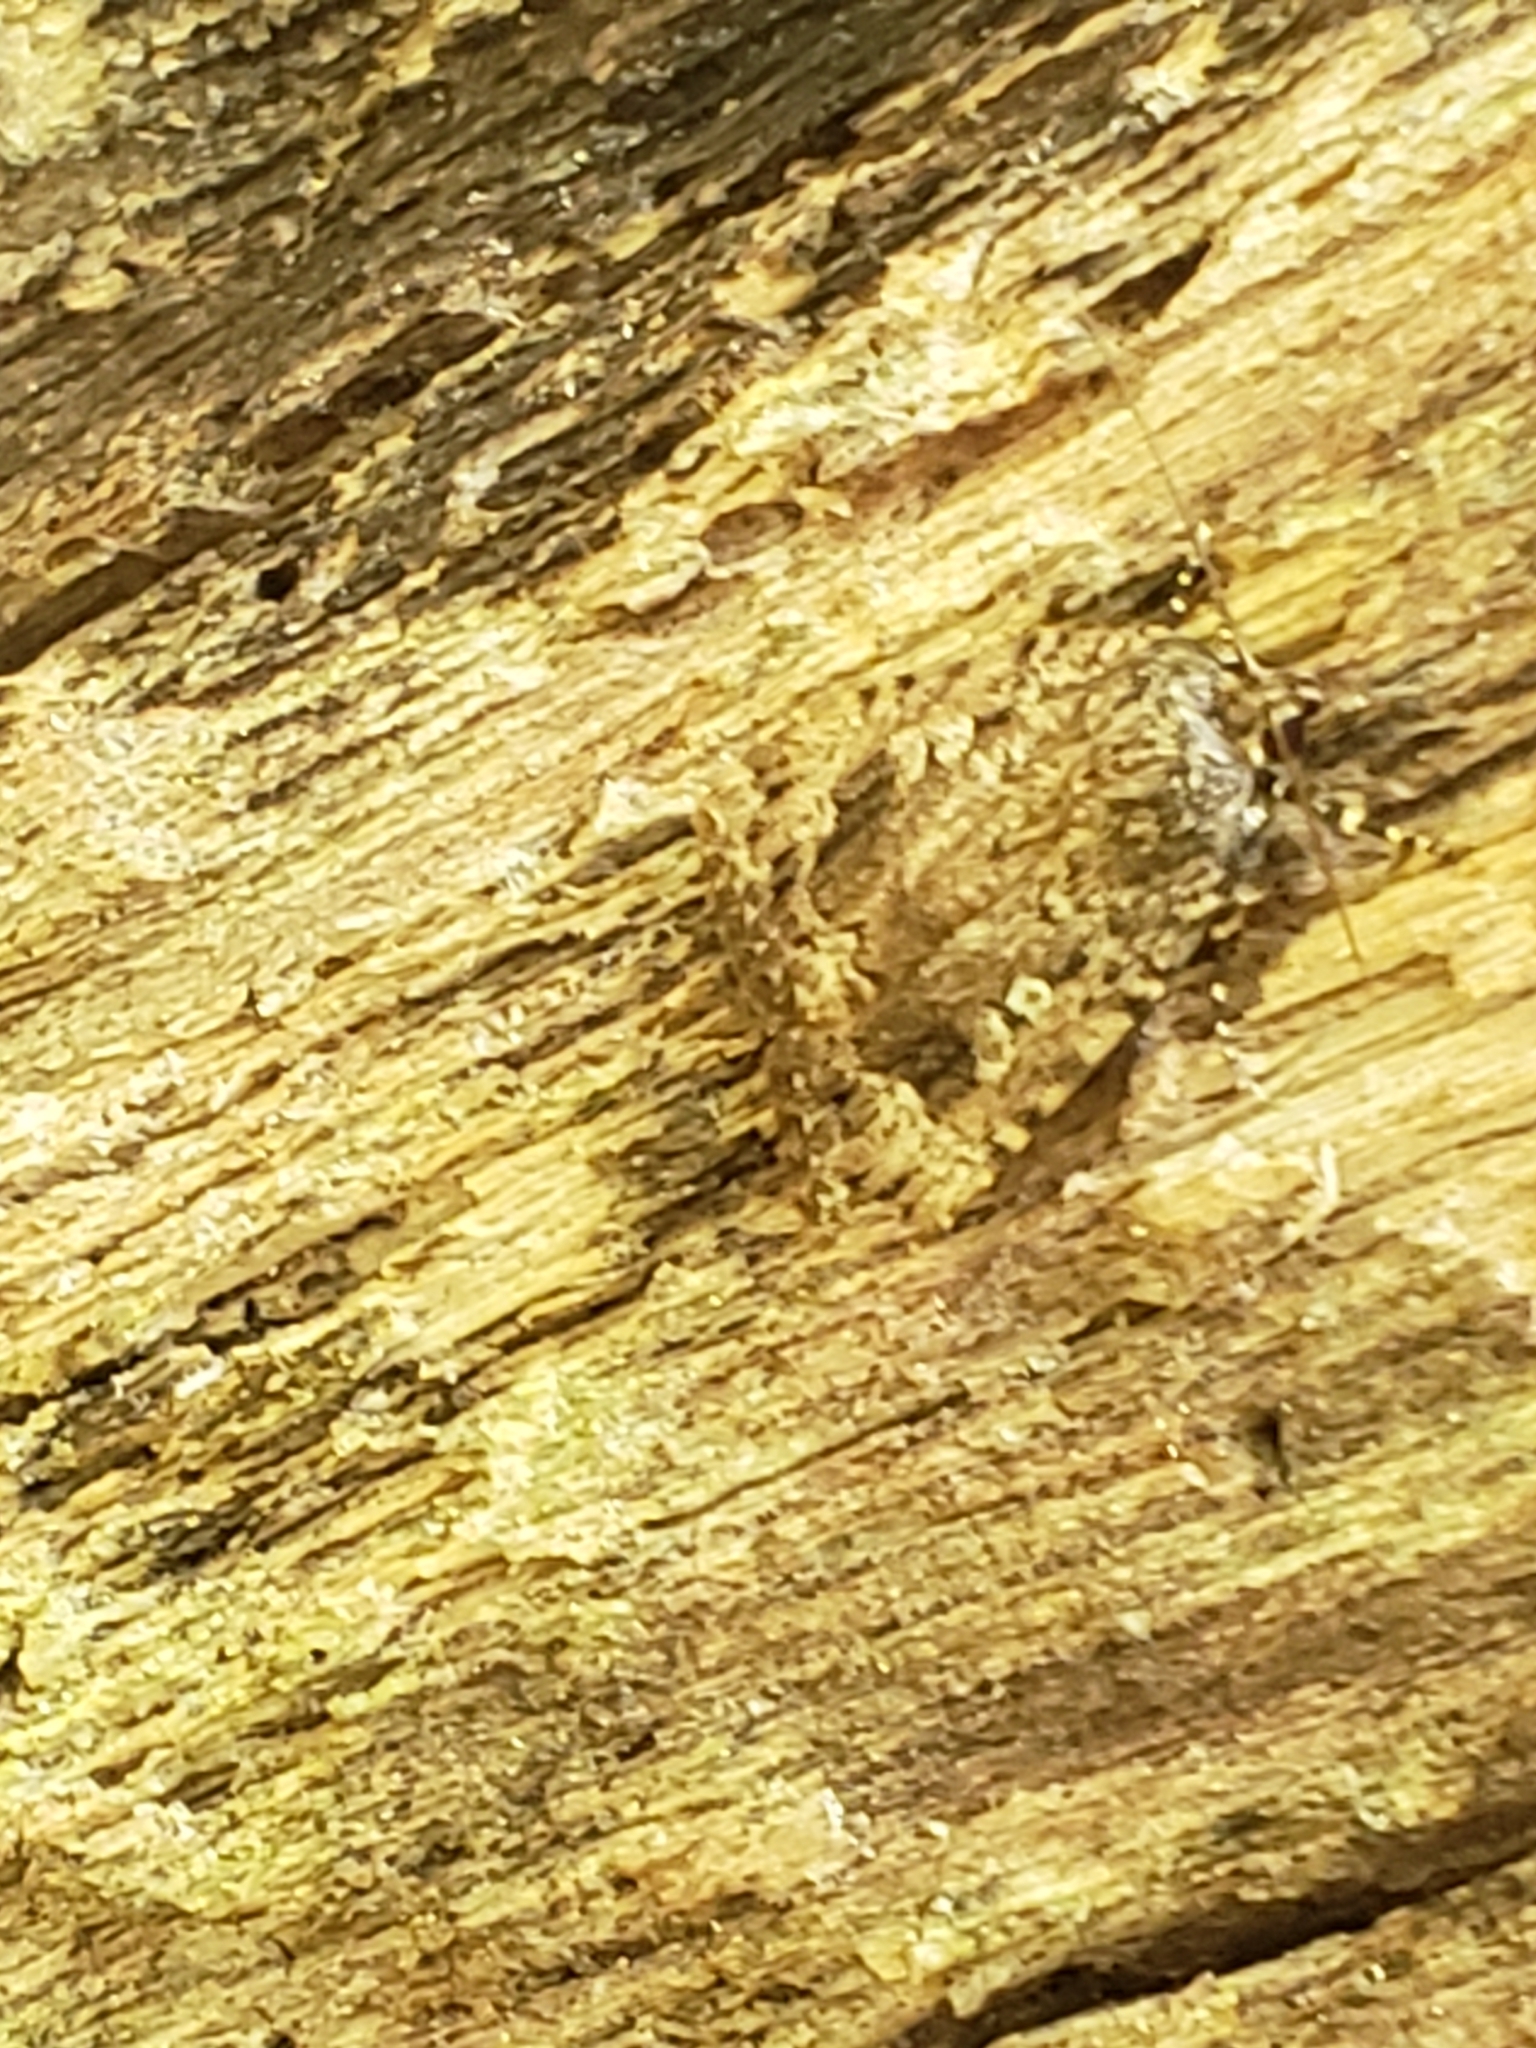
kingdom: Animalia
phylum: Arthropoda
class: Insecta
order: Lepidoptera
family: Noctuidae
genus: Amphipyra
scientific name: Amphipyra pyramidoides
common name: American copper underwing
